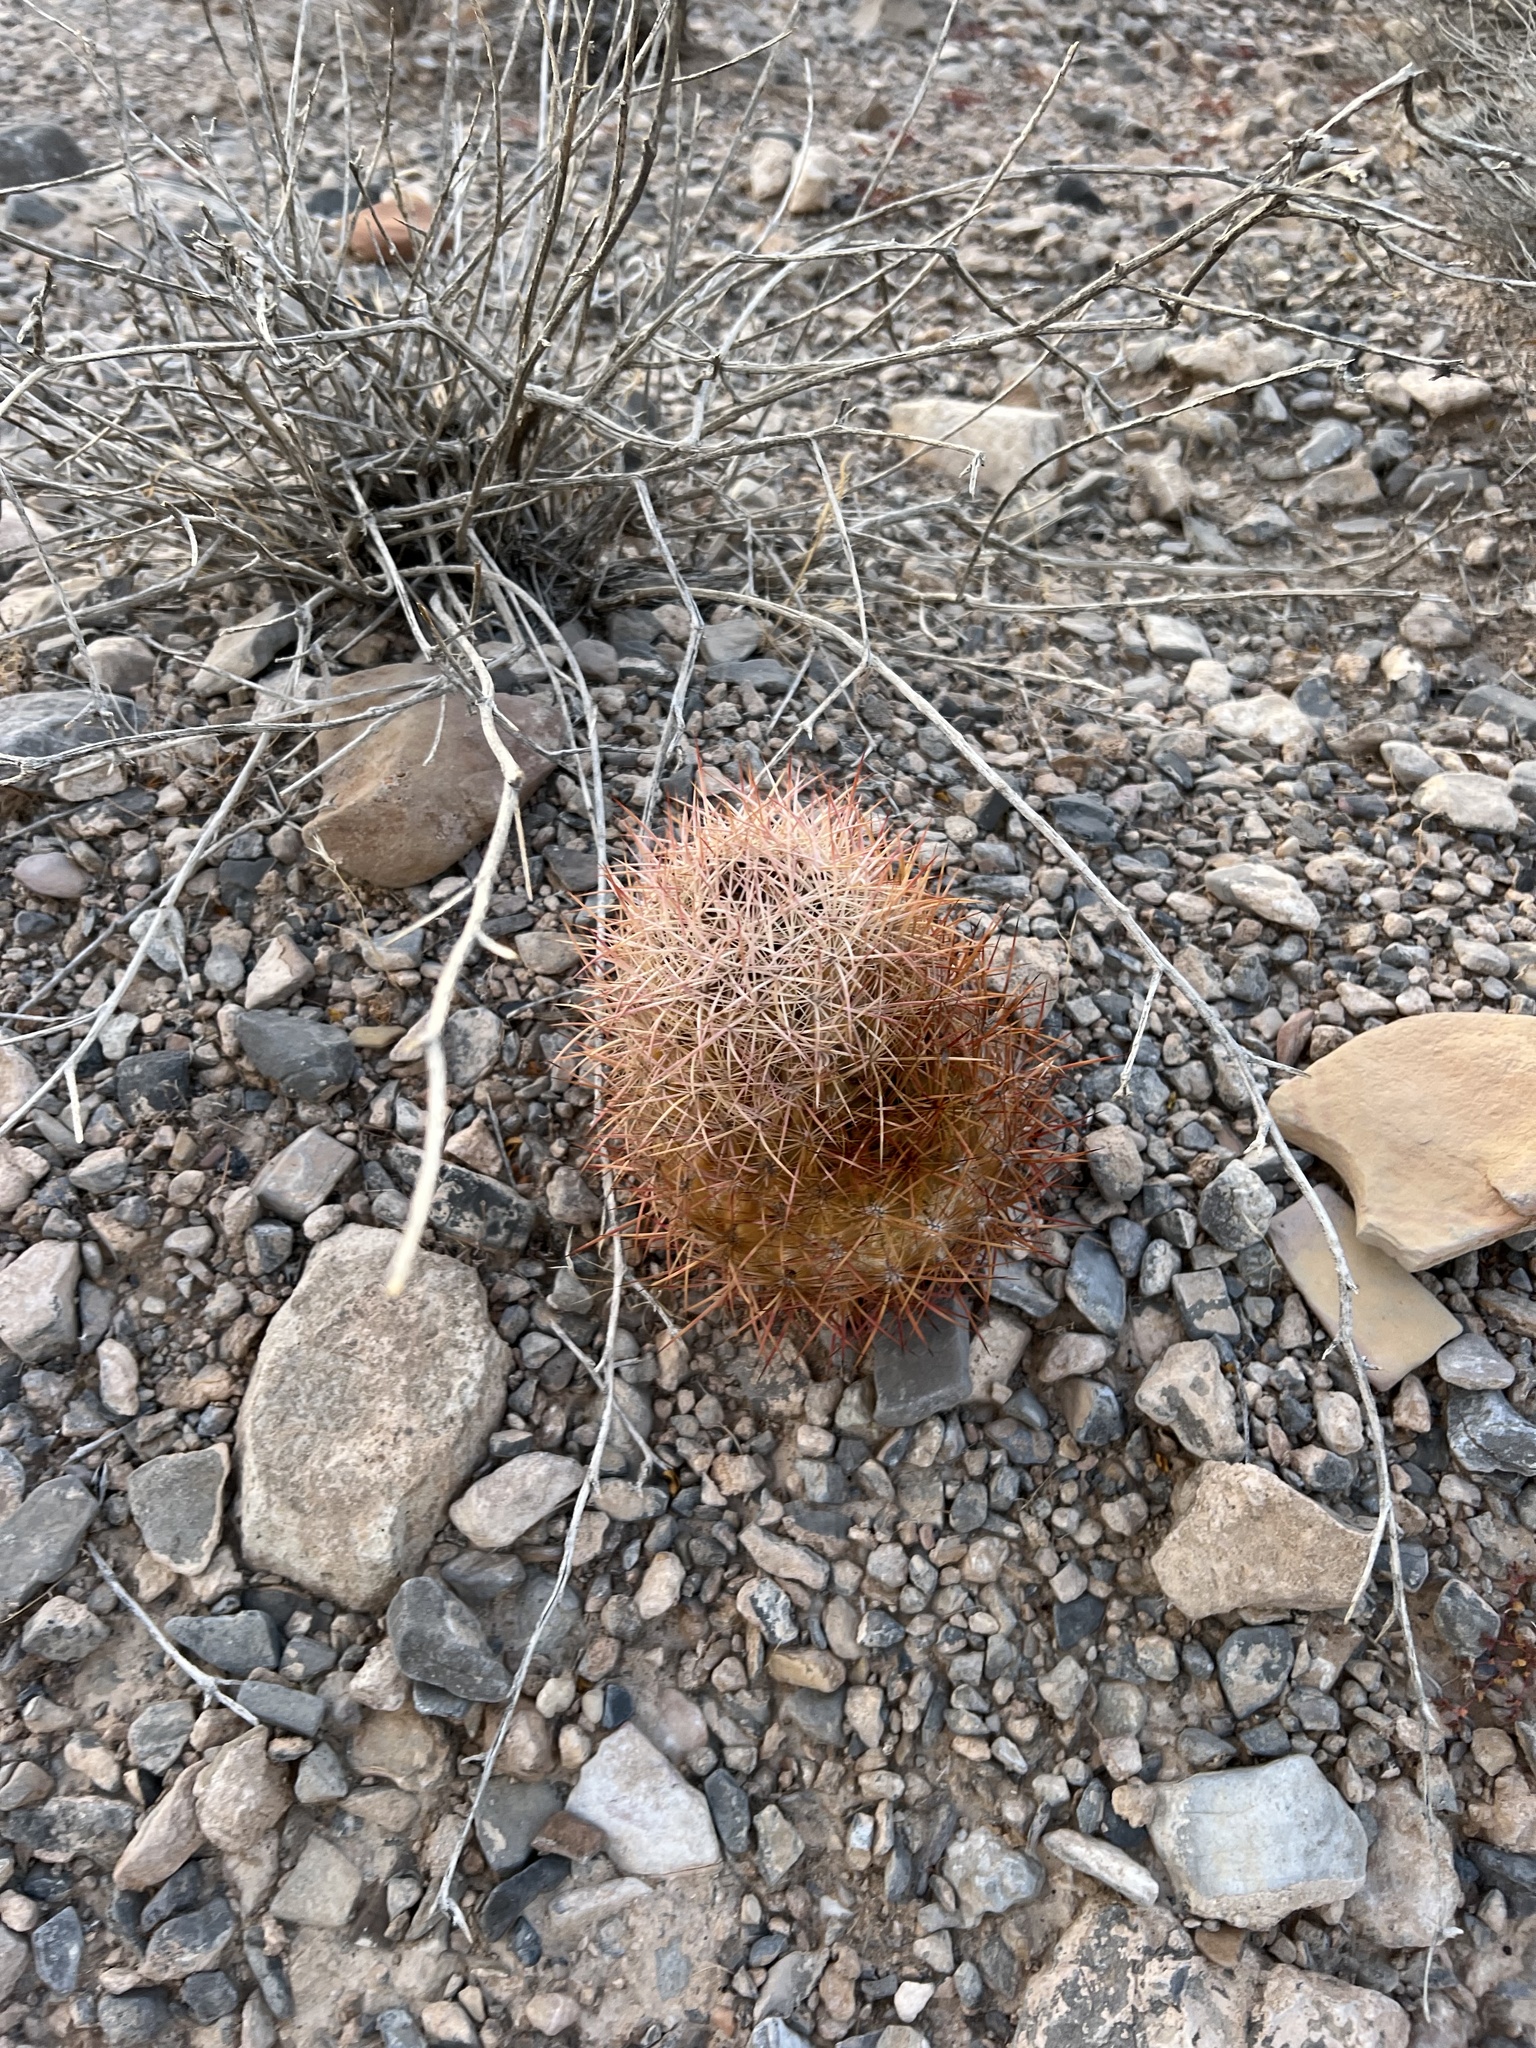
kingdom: Plantae
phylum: Tracheophyta
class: Magnoliopsida
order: Caryophyllales
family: Cactaceae
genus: Sclerocactus
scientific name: Sclerocactus johnsonii
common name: Eight-spine fishhook cactus
